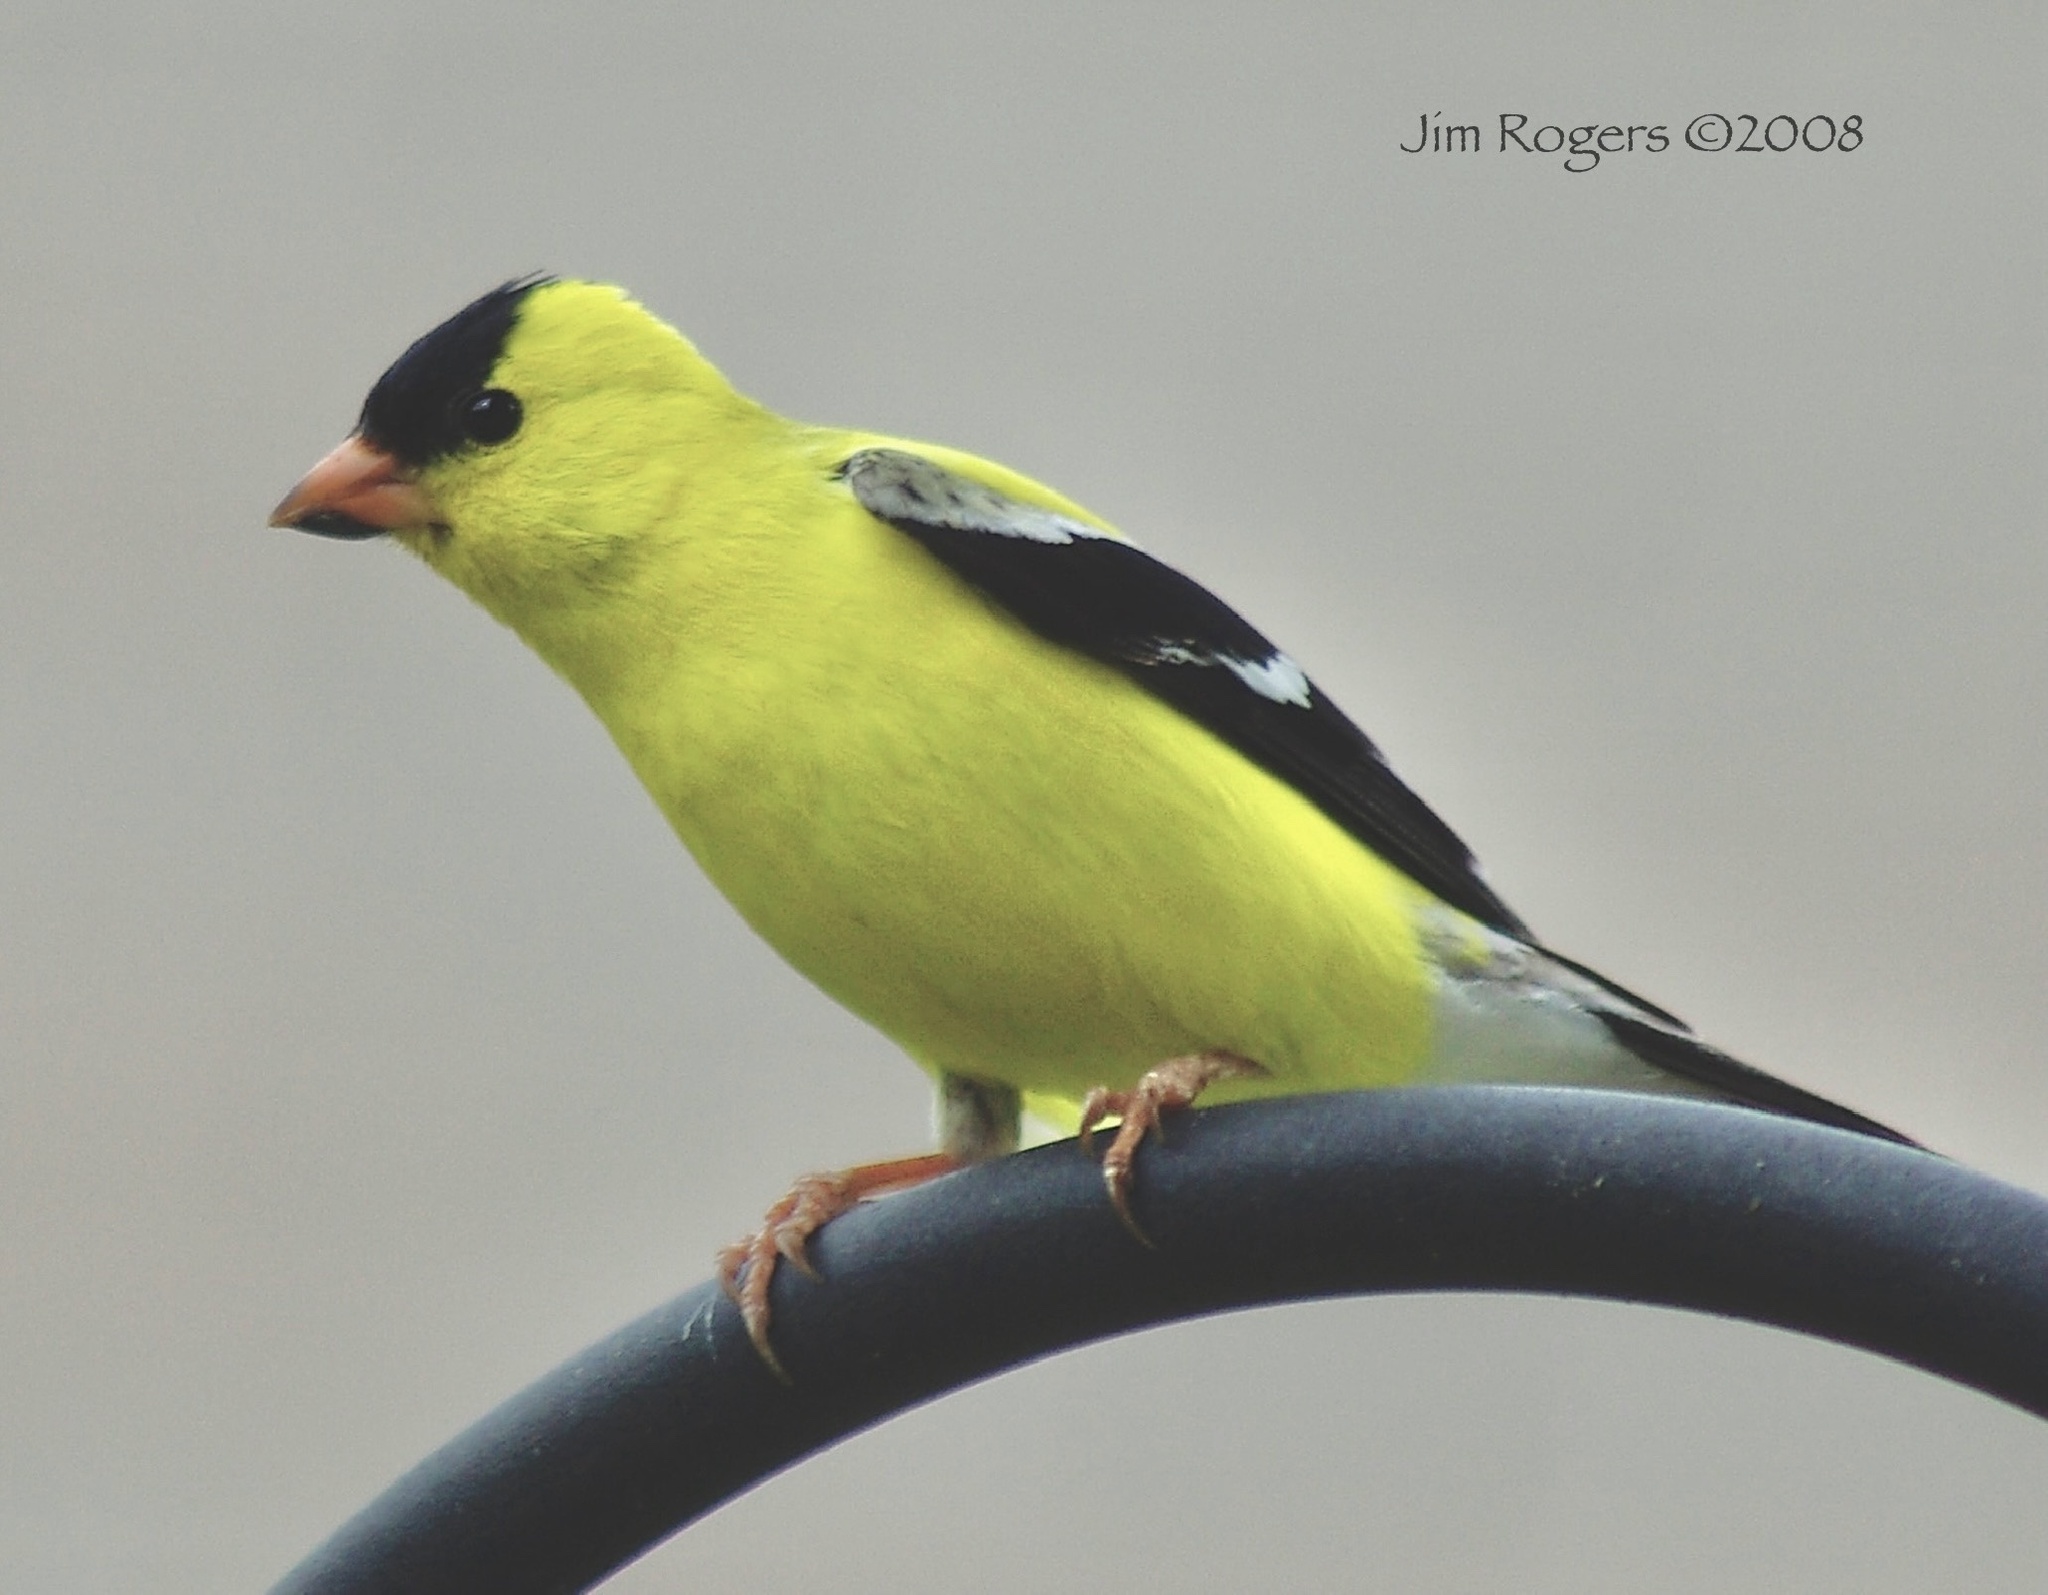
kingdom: Animalia
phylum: Chordata
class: Aves
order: Passeriformes
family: Fringillidae
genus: Spinus
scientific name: Spinus tristis
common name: American goldfinch
